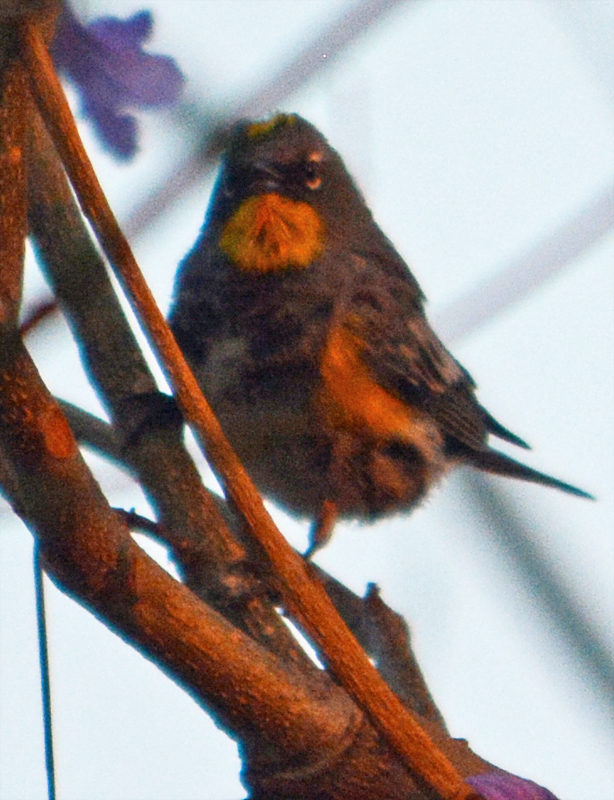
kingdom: Animalia
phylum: Chordata
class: Aves
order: Passeriformes
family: Parulidae
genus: Setophaga
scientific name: Setophaga auduboni
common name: Audubon's warbler
